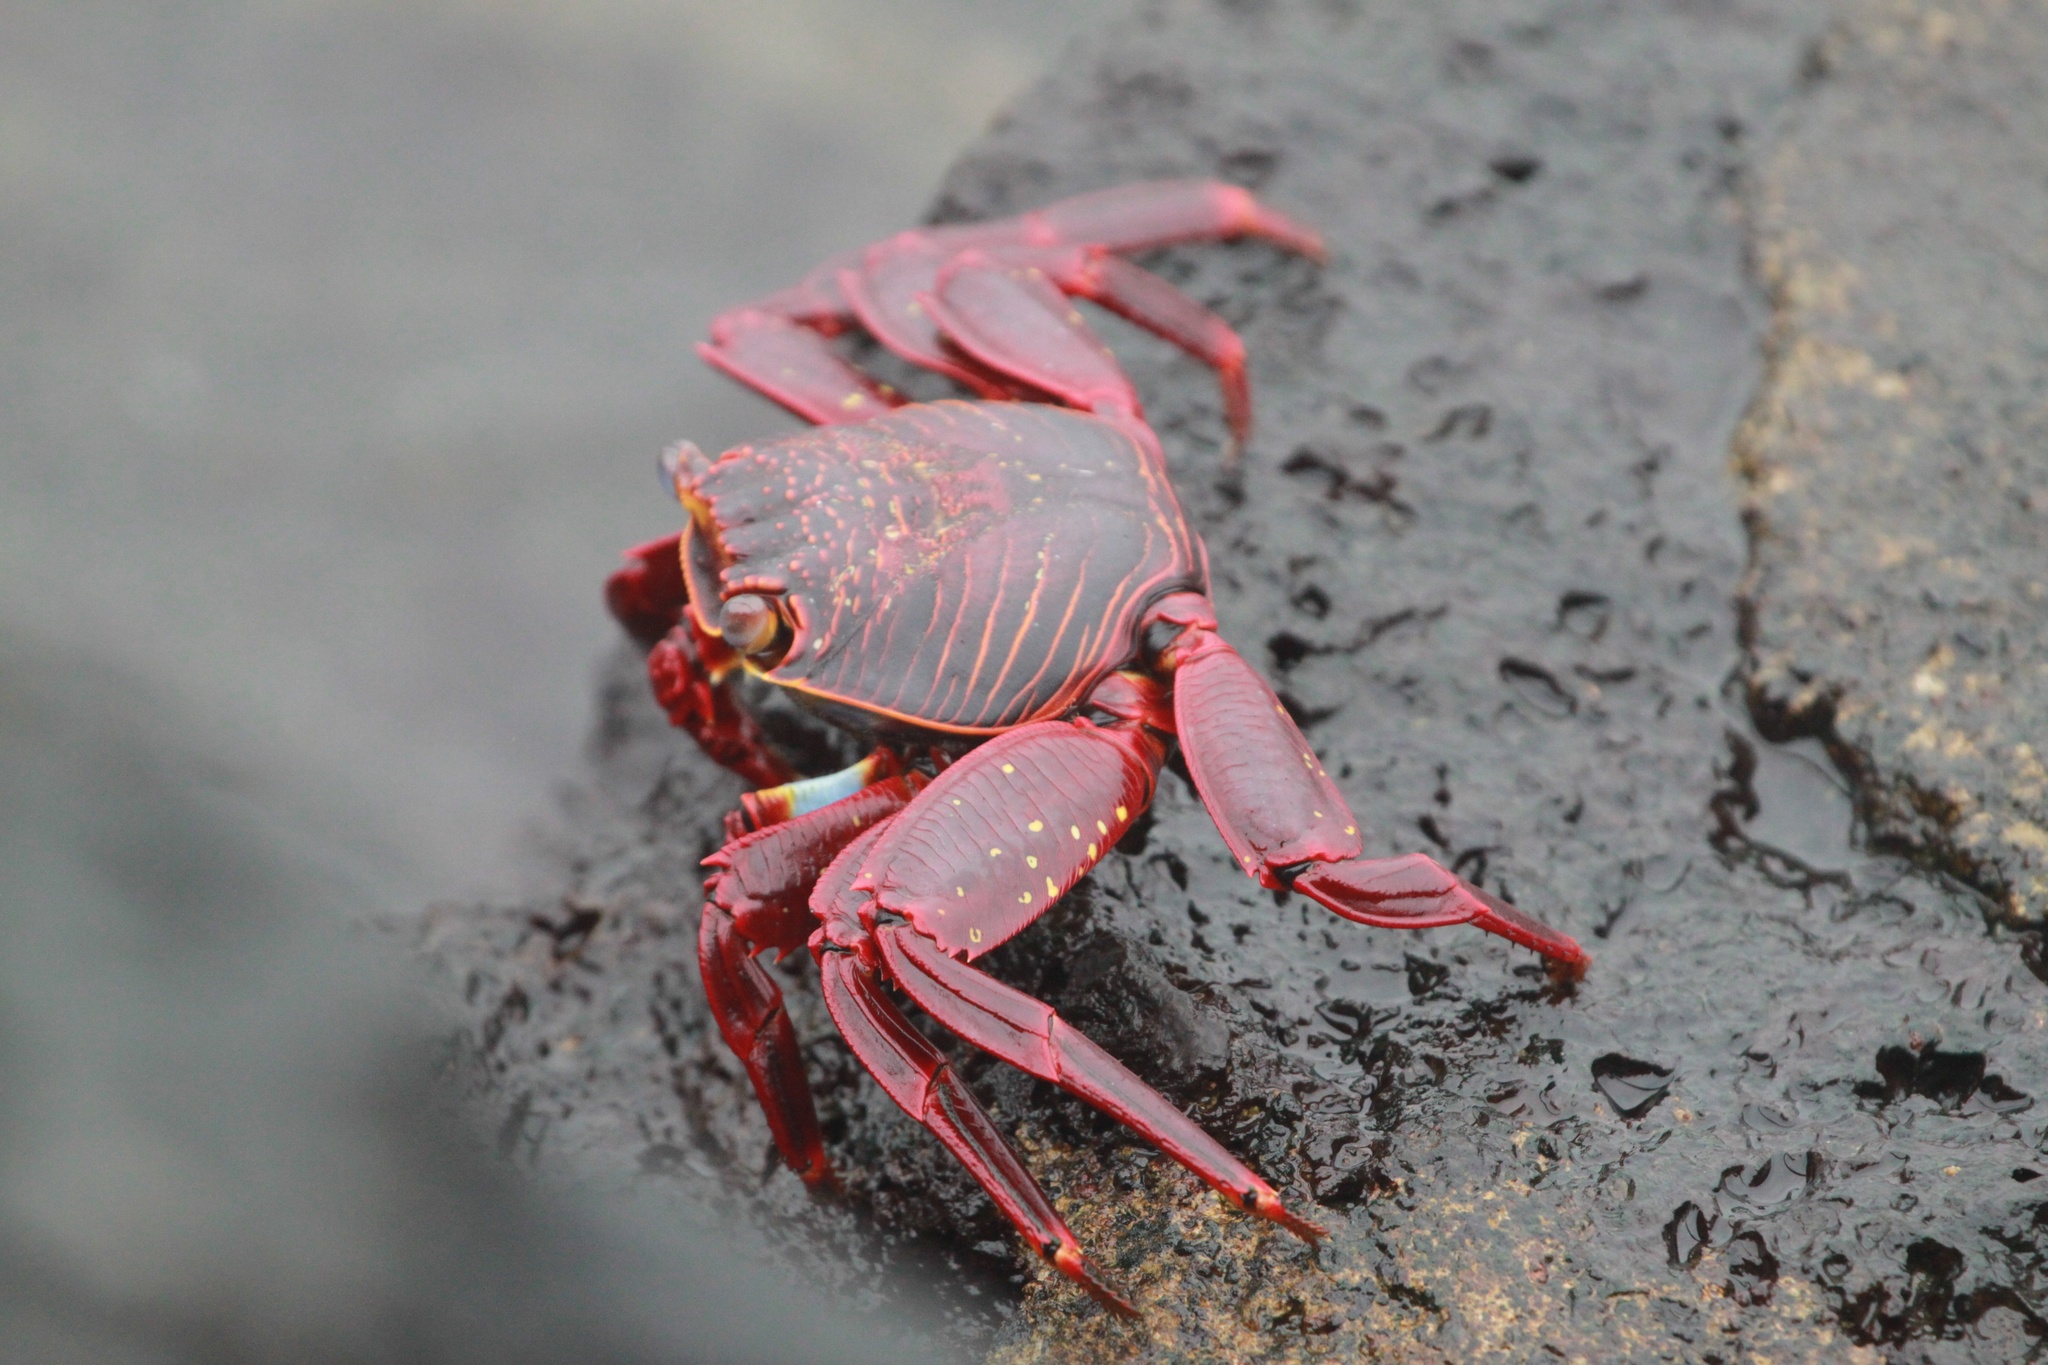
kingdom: Animalia
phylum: Arthropoda
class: Malacostraca
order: Decapoda
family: Grapsidae
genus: Grapsus
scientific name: Grapsus grapsus
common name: Sally lightfoot
